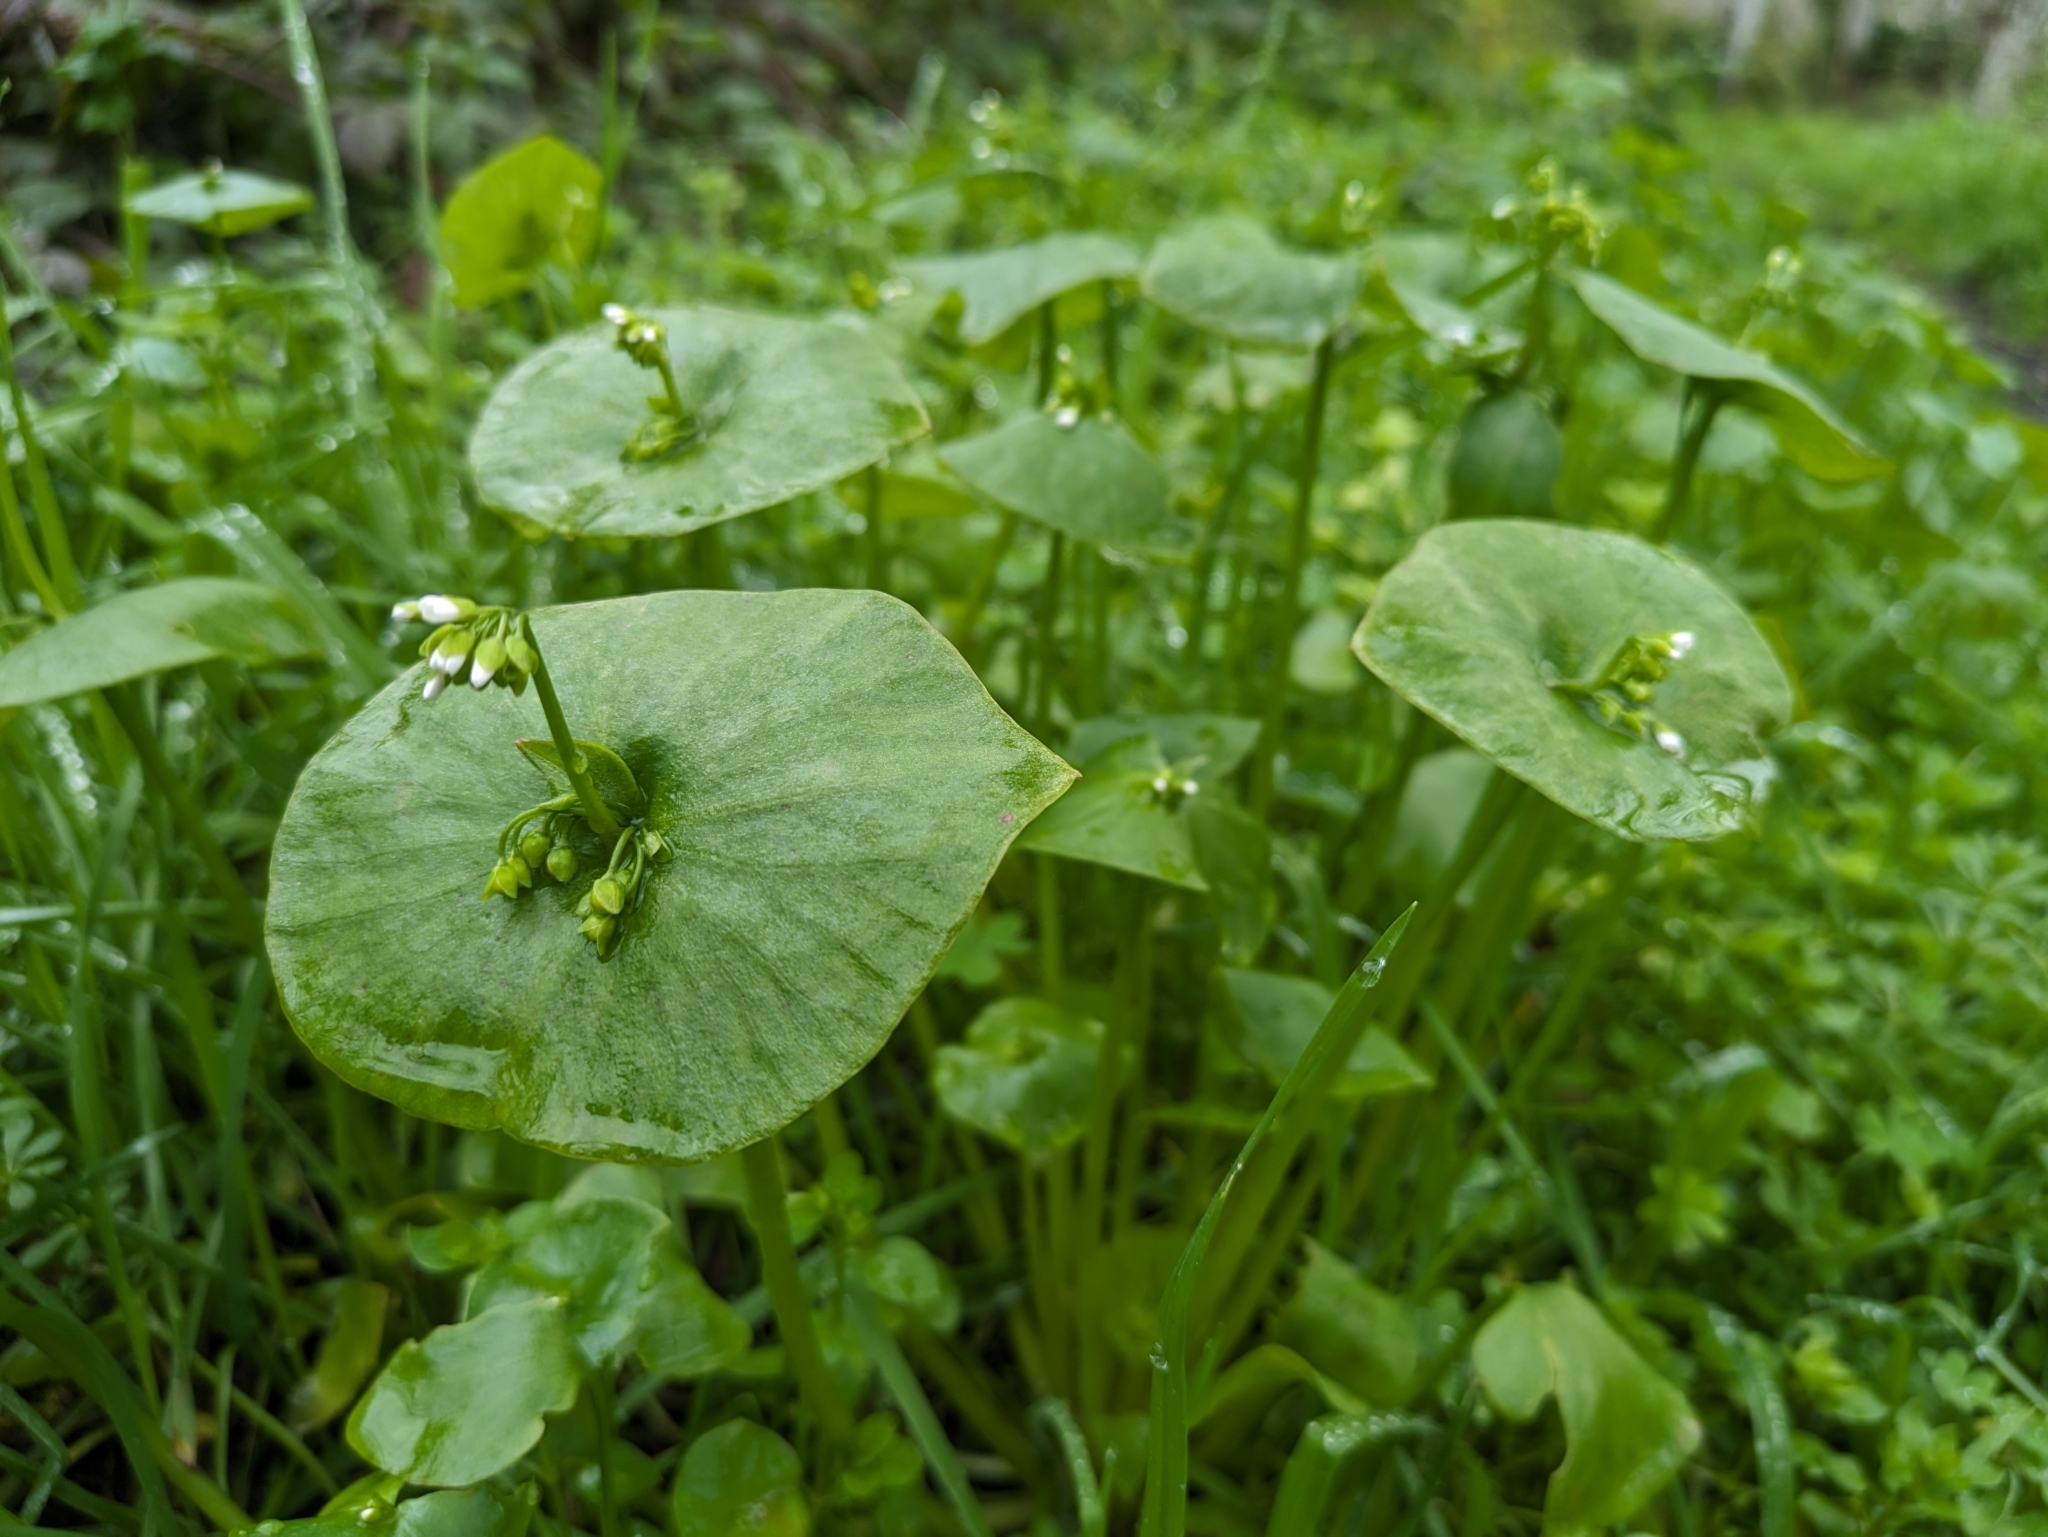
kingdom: Plantae
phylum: Tracheophyta
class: Magnoliopsida
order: Caryophyllales
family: Montiaceae
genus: Claytonia
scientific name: Claytonia perfoliata
